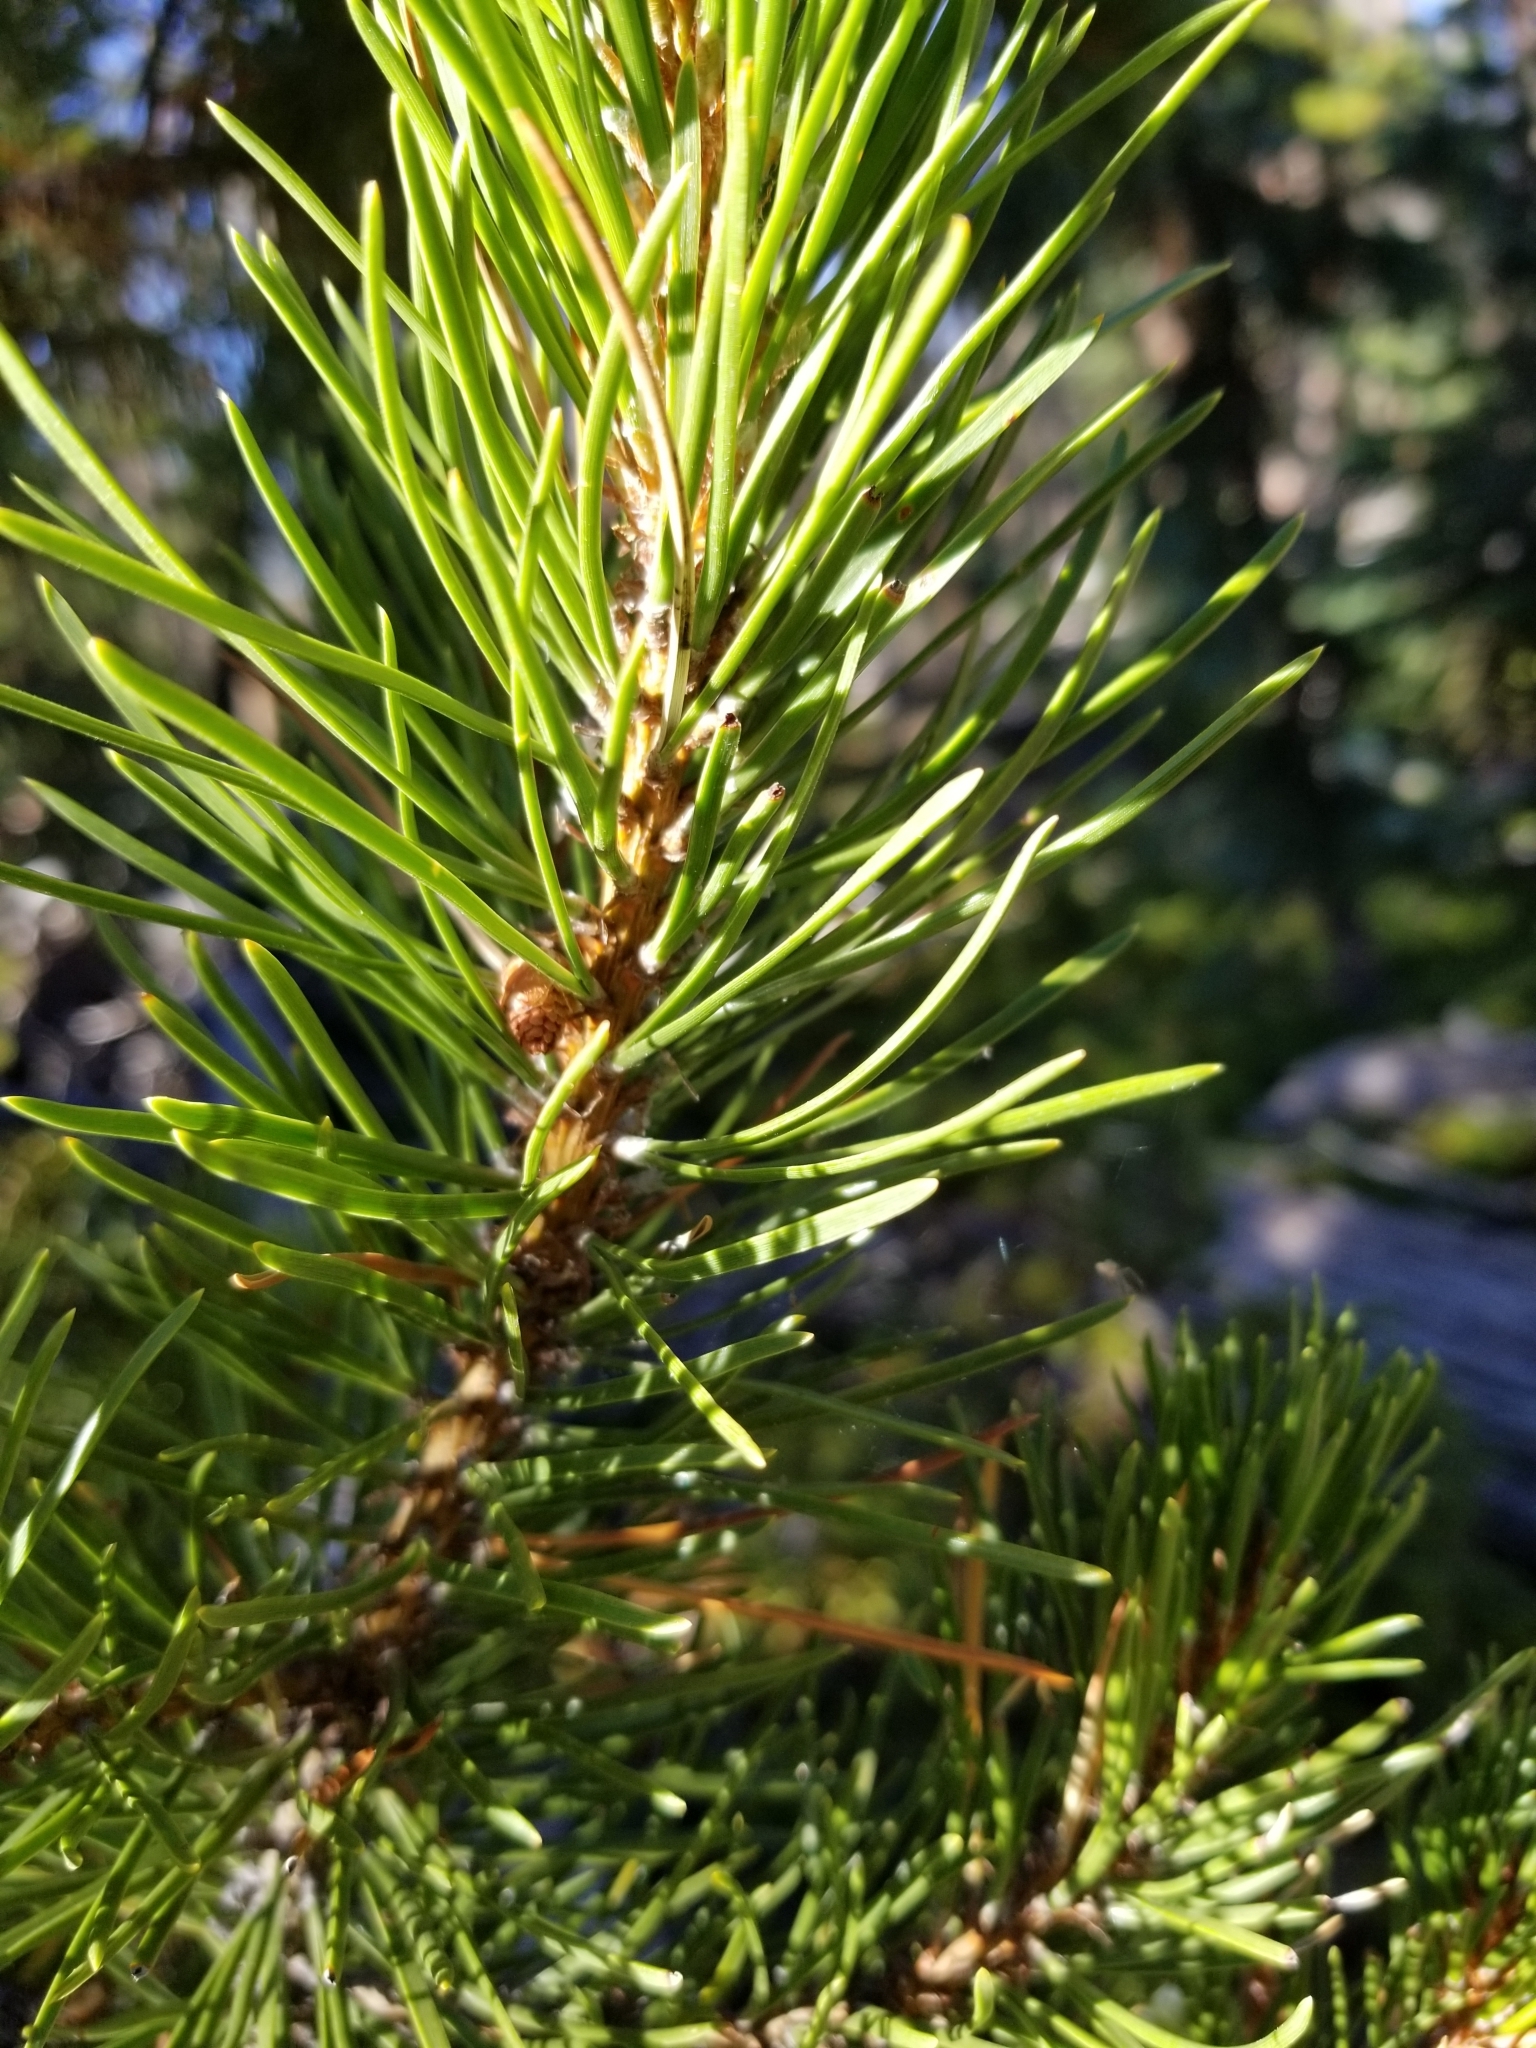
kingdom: Plantae
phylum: Tracheophyta
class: Pinopsida
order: Pinales
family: Pinaceae
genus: Pinus
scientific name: Pinus contorta
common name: Lodgepole pine
